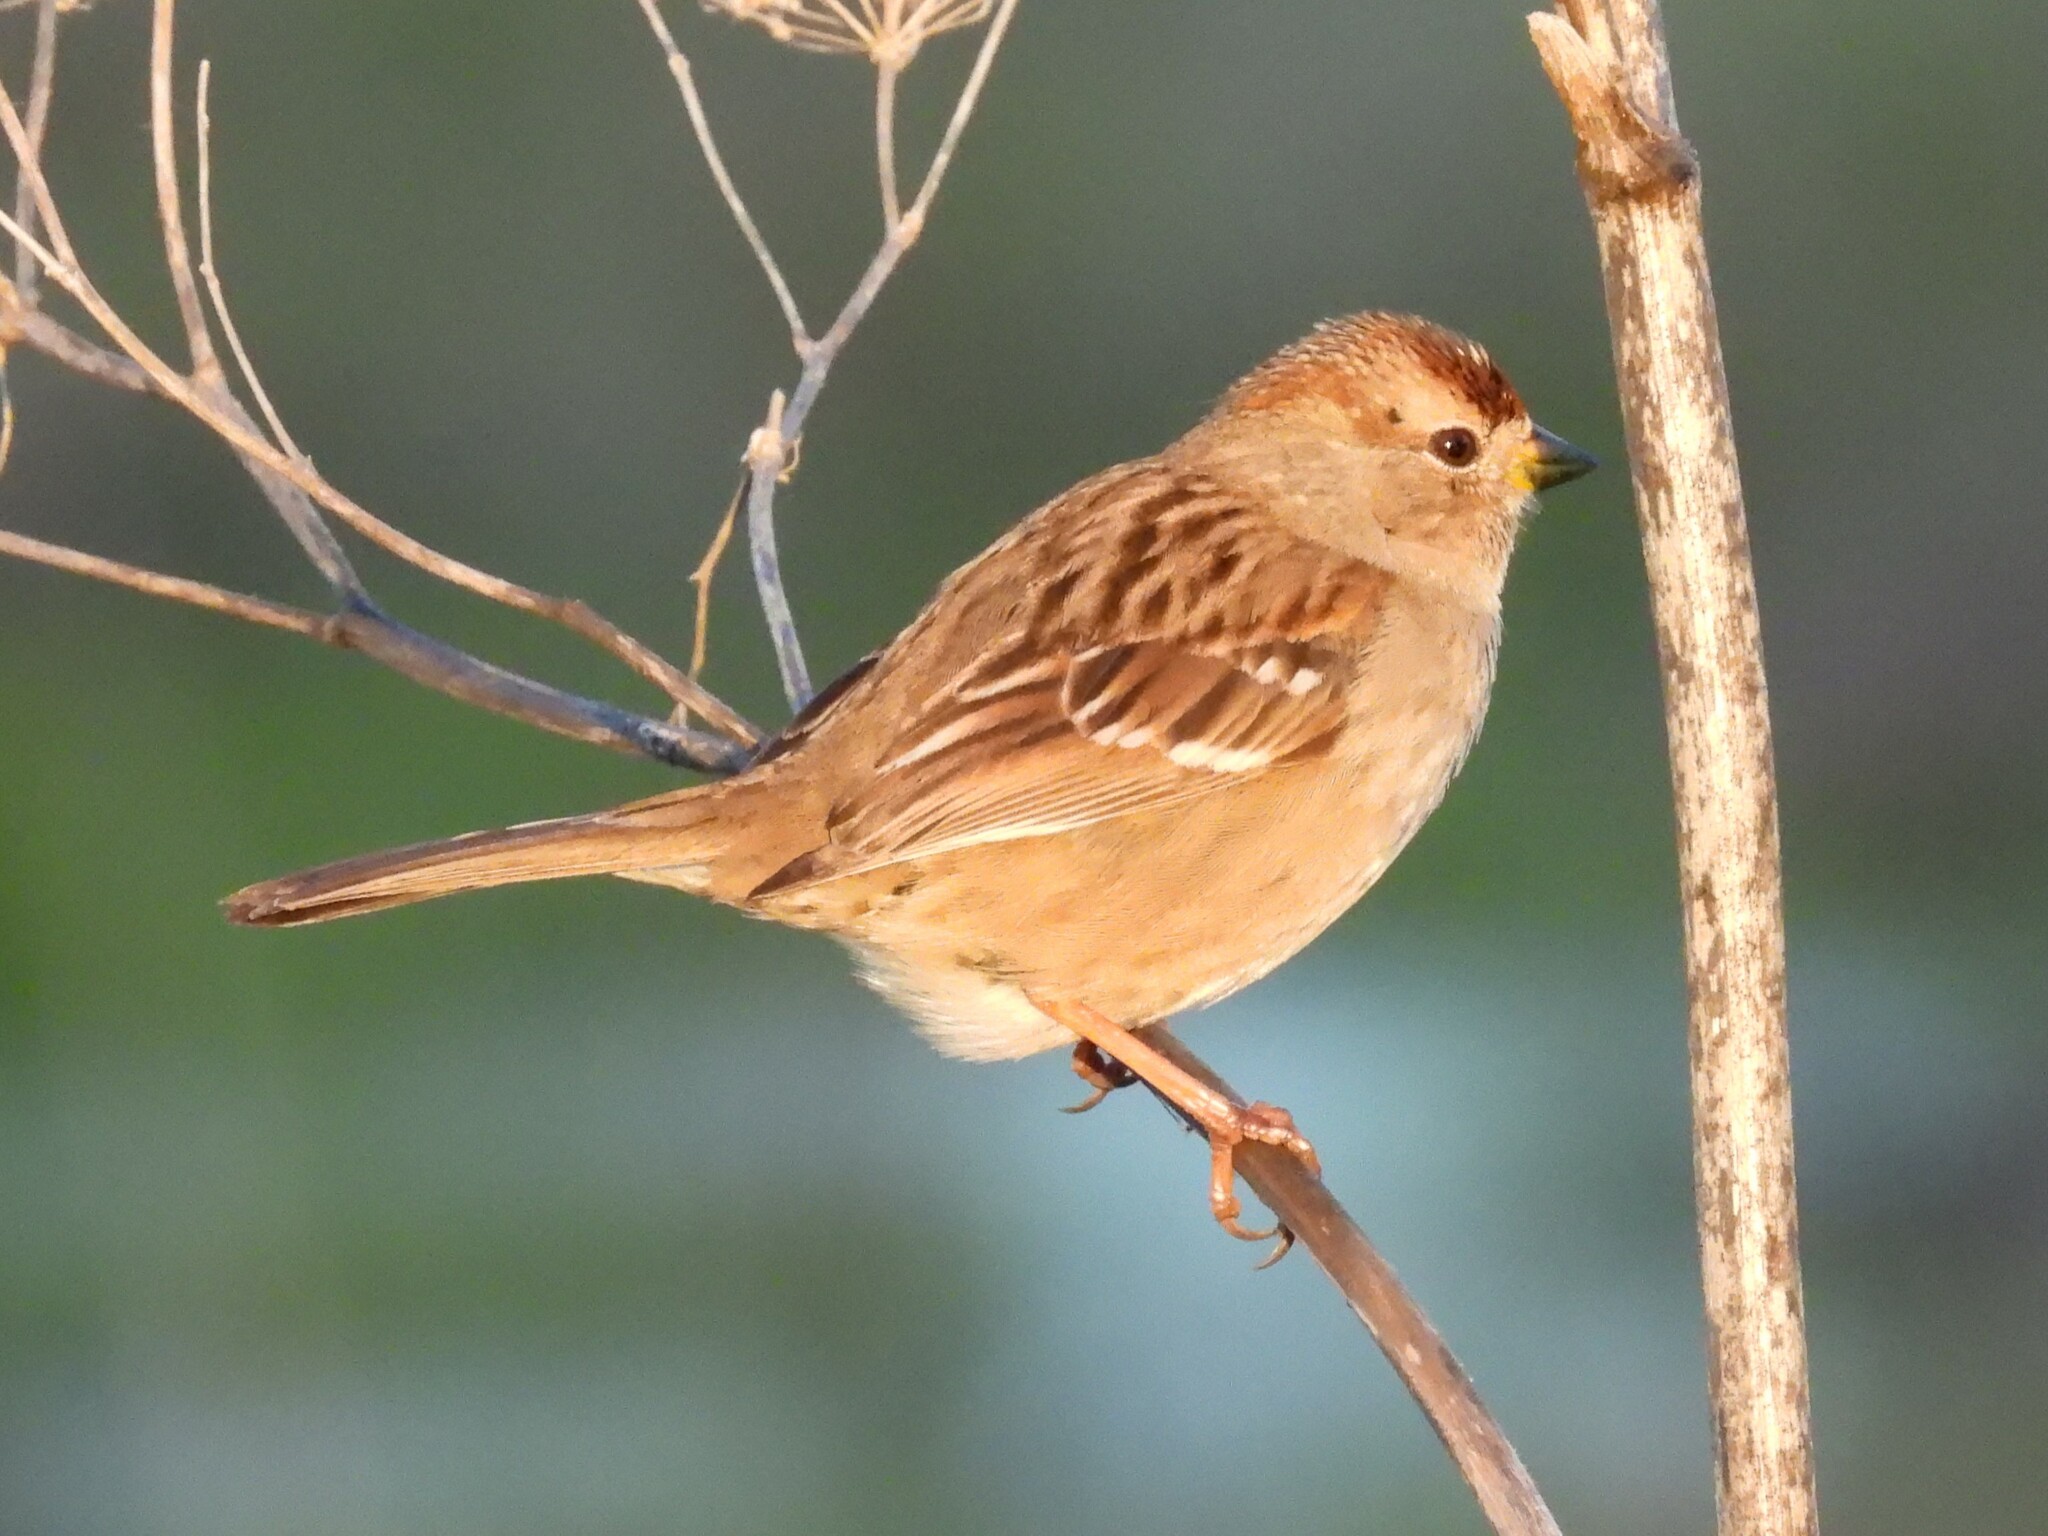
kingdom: Animalia
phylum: Chordata
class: Aves
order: Passeriformes
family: Passerellidae
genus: Zonotrichia
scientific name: Zonotrichia leucophrys
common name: White-crowned sparrow
